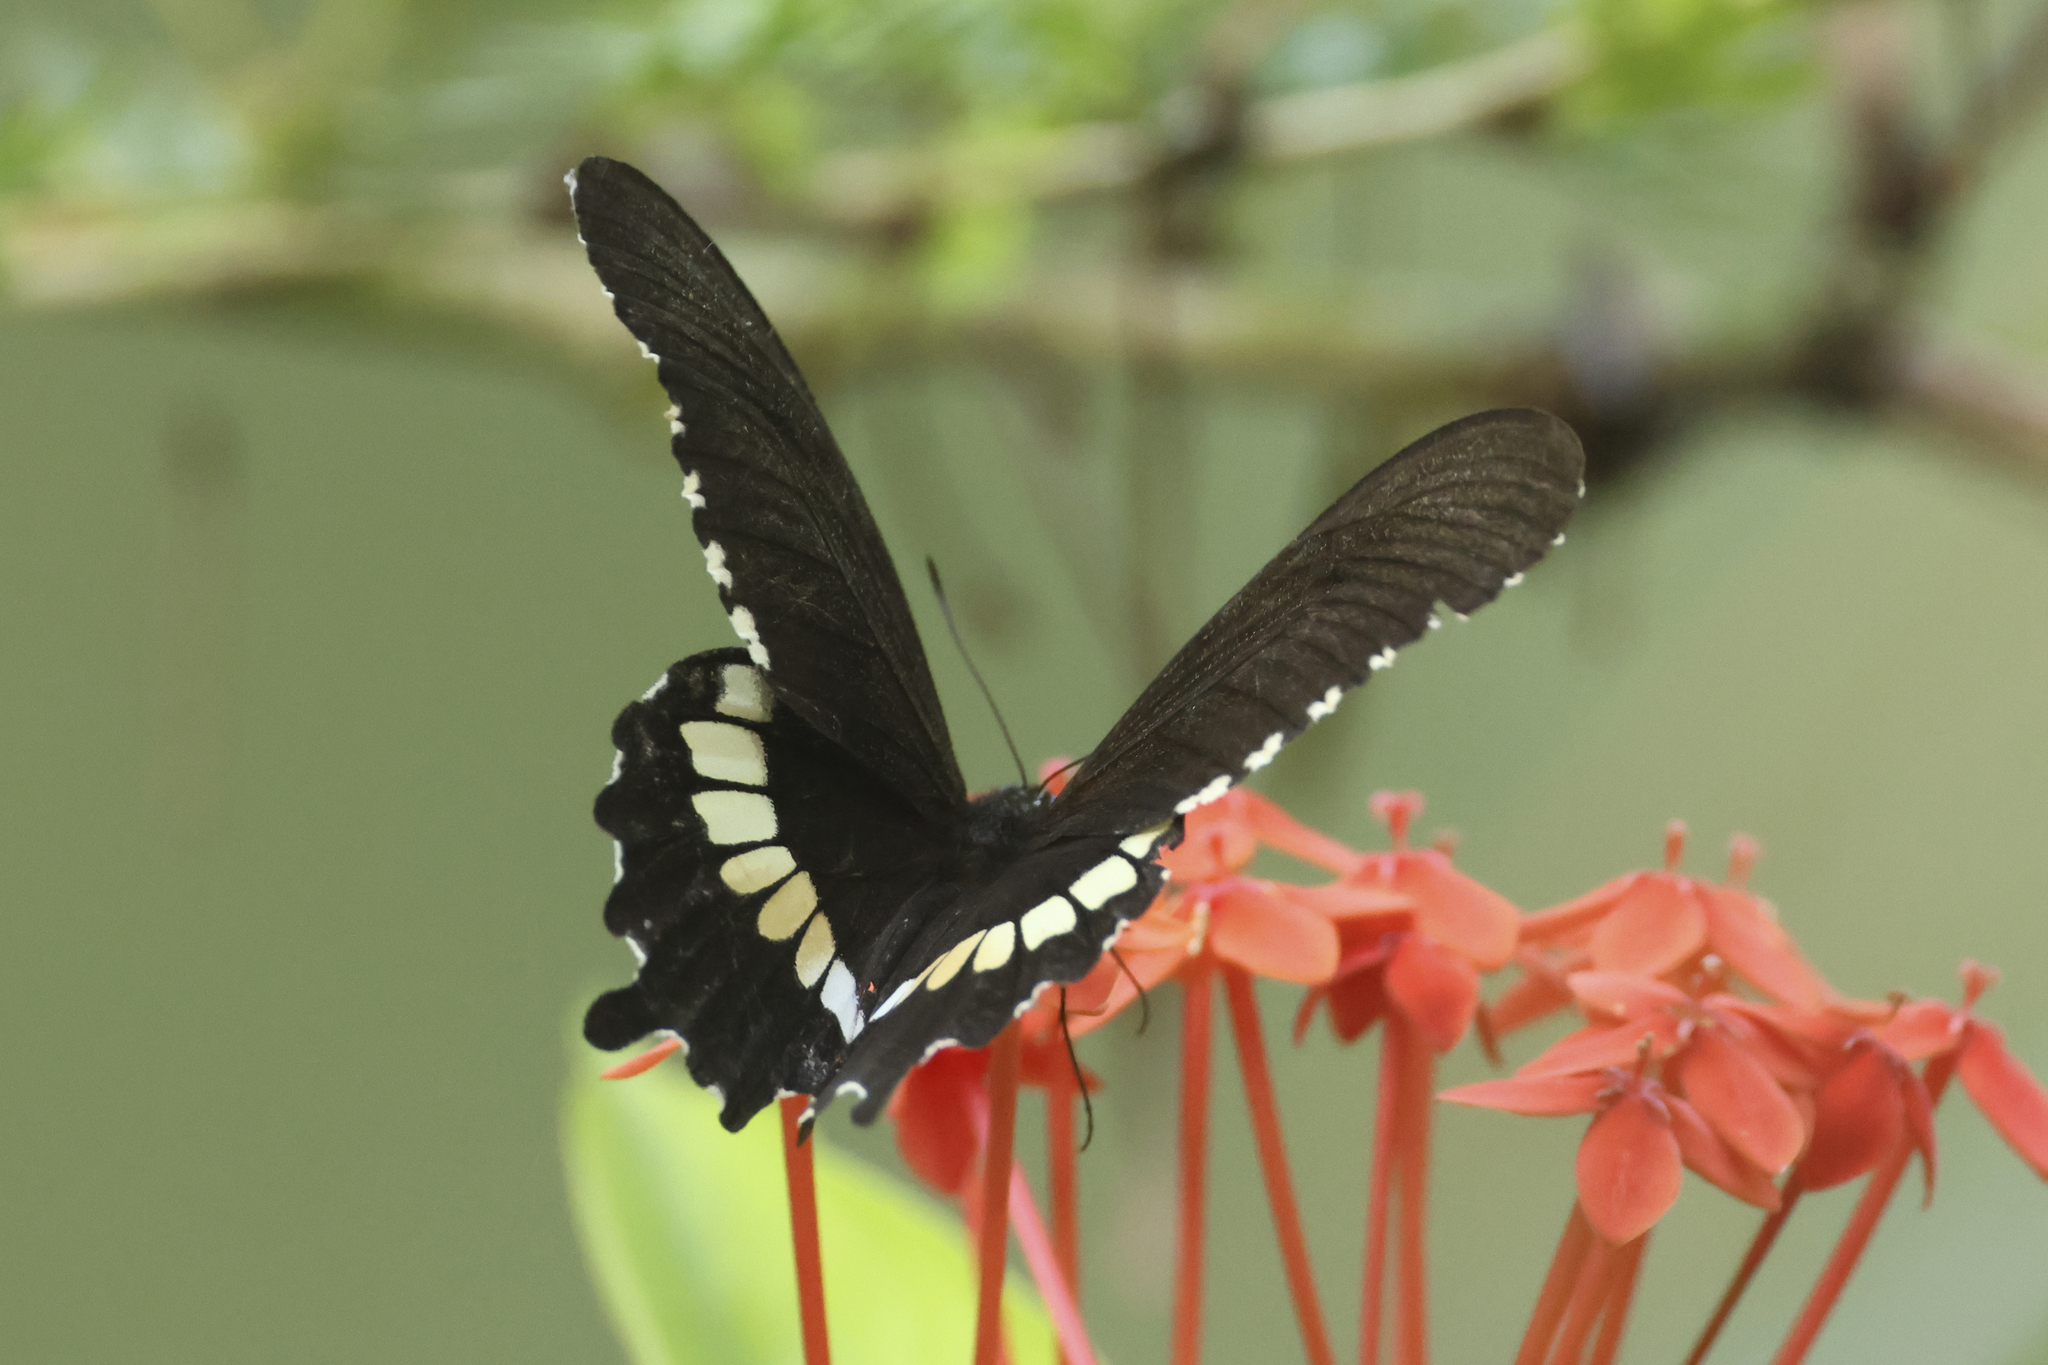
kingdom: Animalia
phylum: Arthropoda
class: Insecta
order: Lepidoptera
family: Papilionidae
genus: Papilio
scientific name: Papilio polytes
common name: Common mormon
